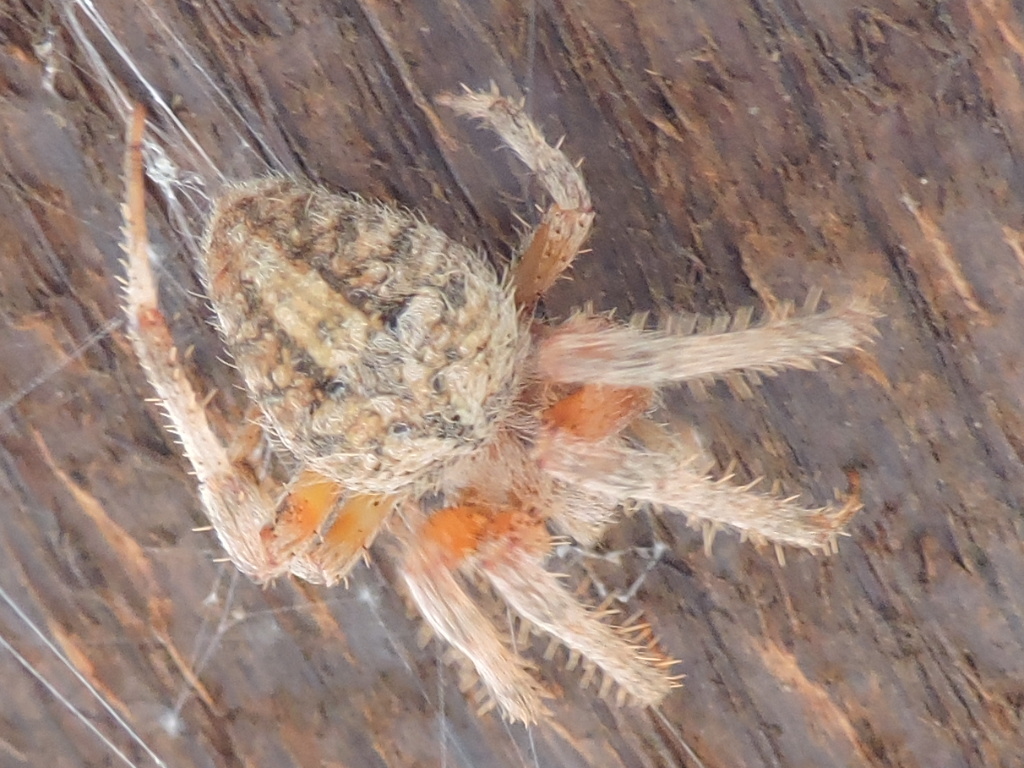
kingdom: Animalia
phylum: Arthropoda
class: Arachnida
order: Araneae
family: Araneidae
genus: Neoscona
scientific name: Neoscona crucifera
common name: Spotted orbweaver
